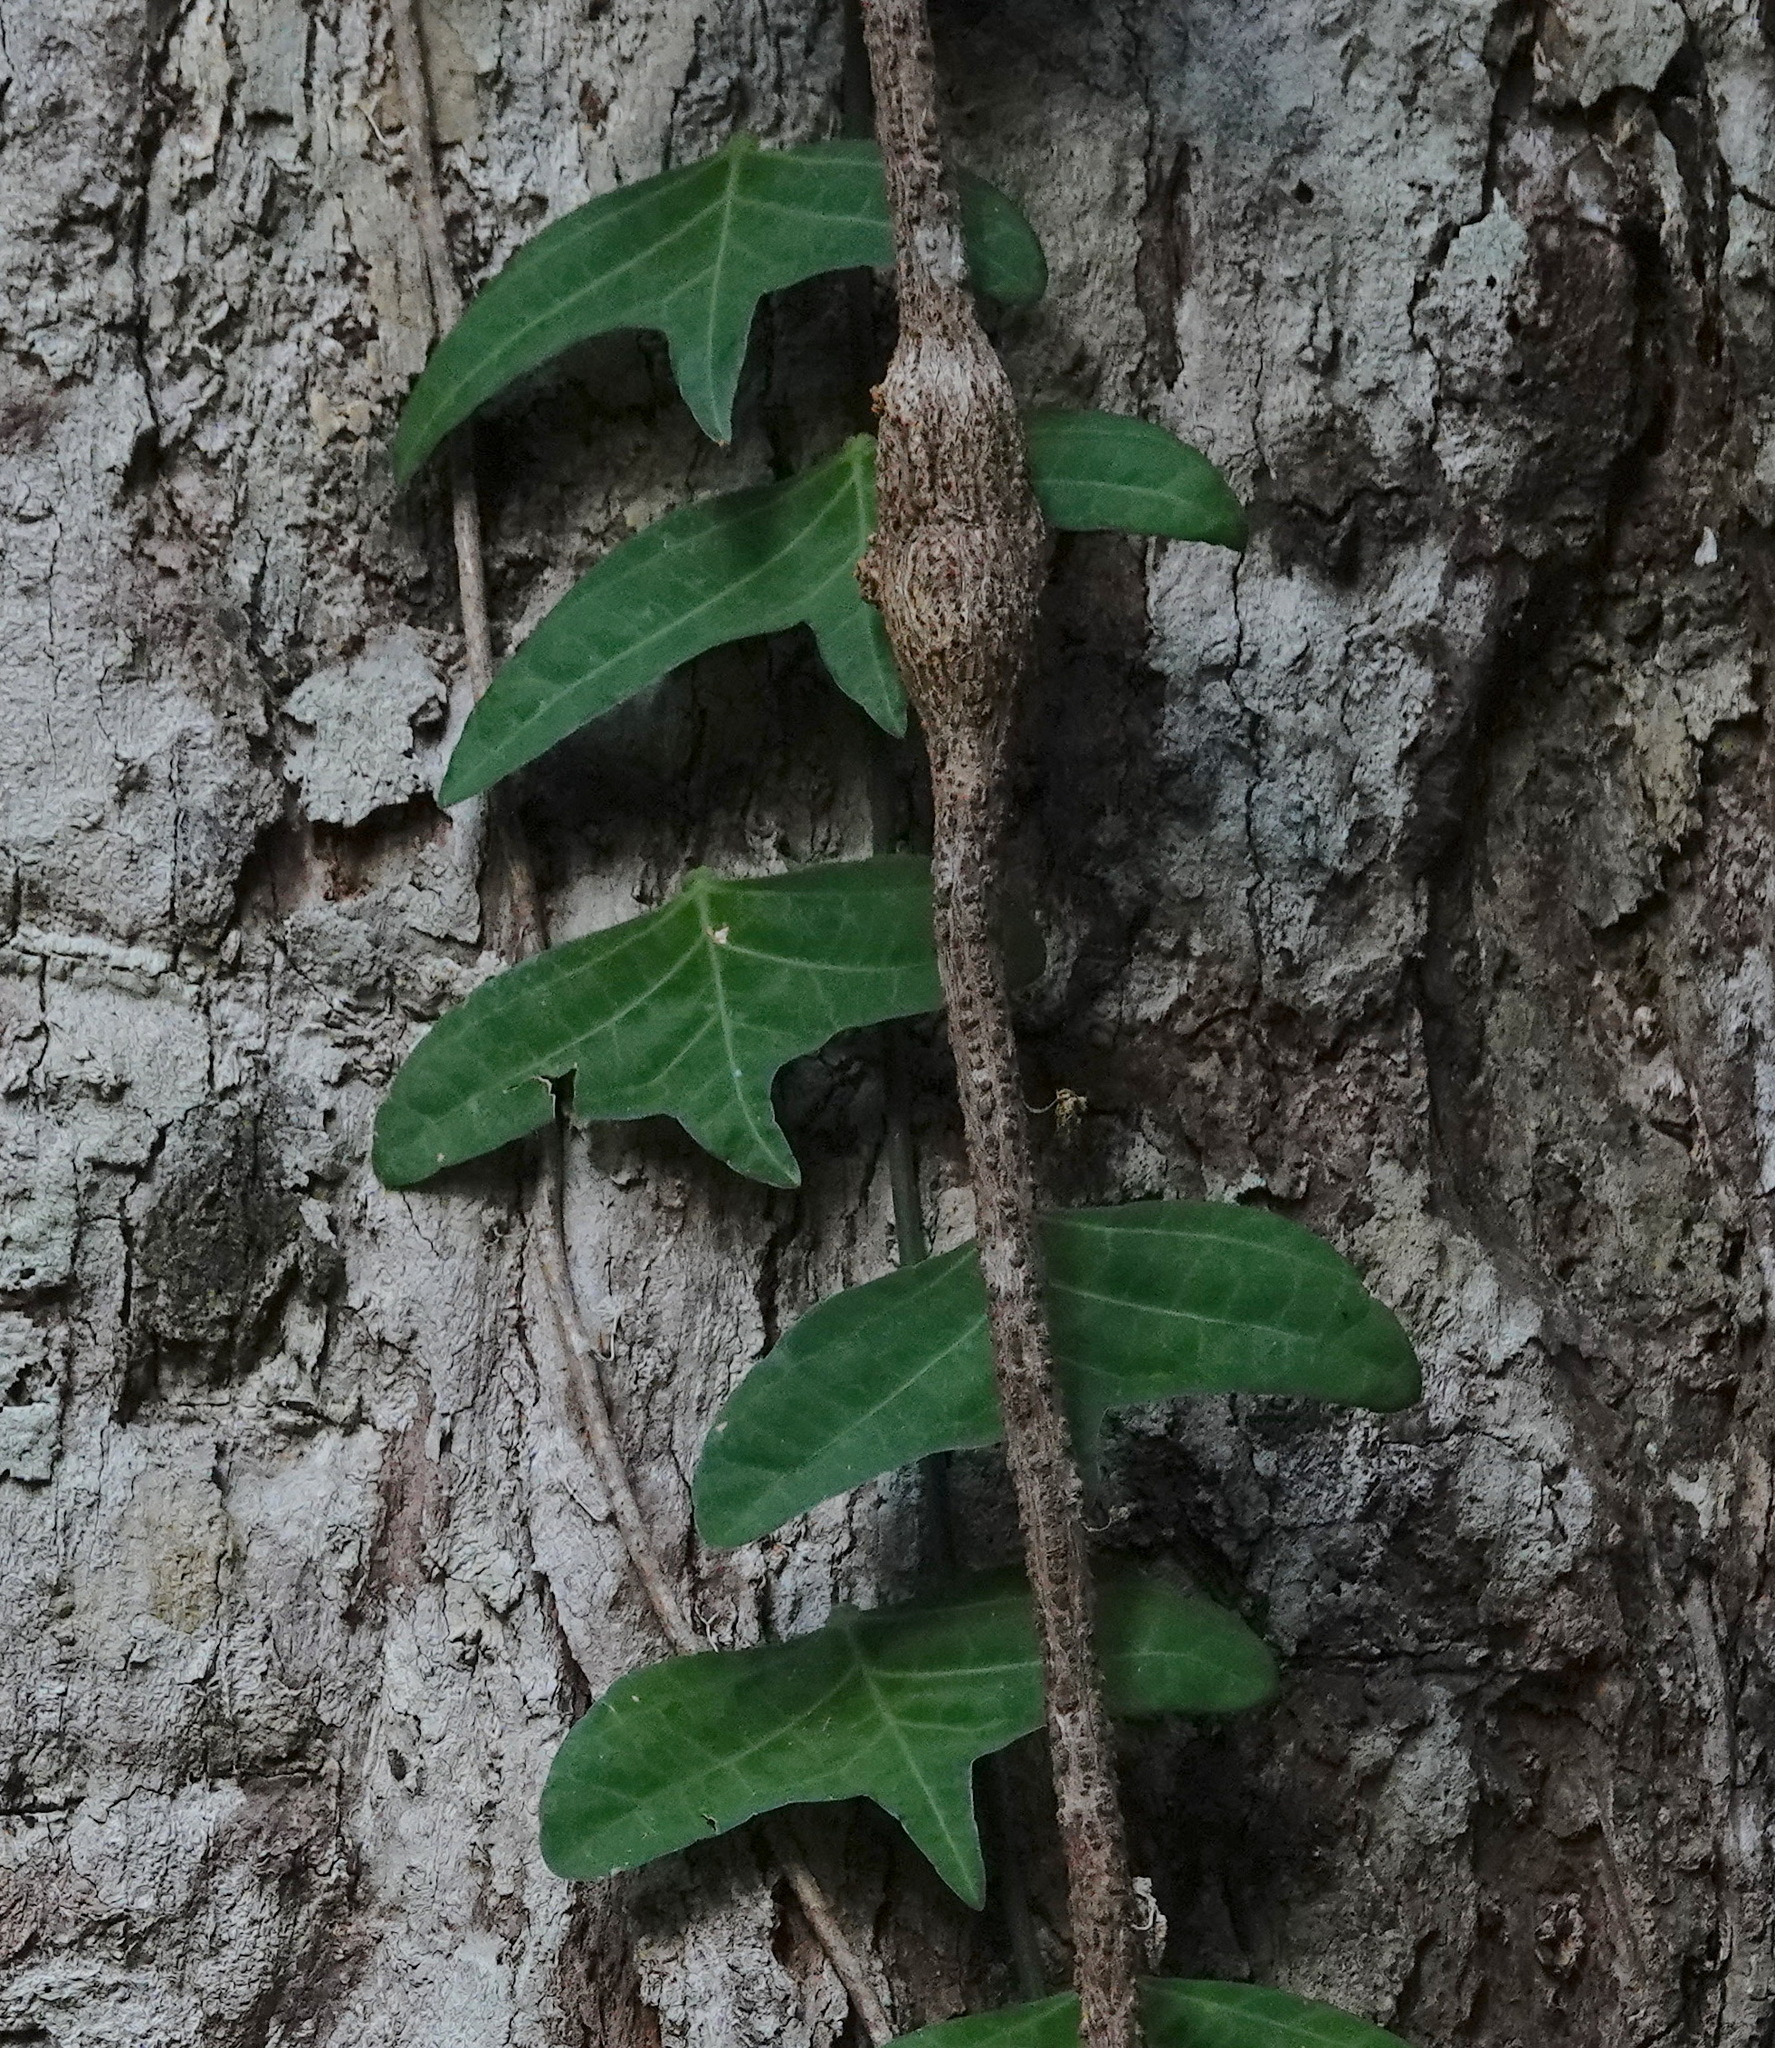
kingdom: Plantae
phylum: Tracheophyta
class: Magnoliopsida
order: Malpighiales
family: Passifloraceae
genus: Adenia
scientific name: Adenia cordifolia
